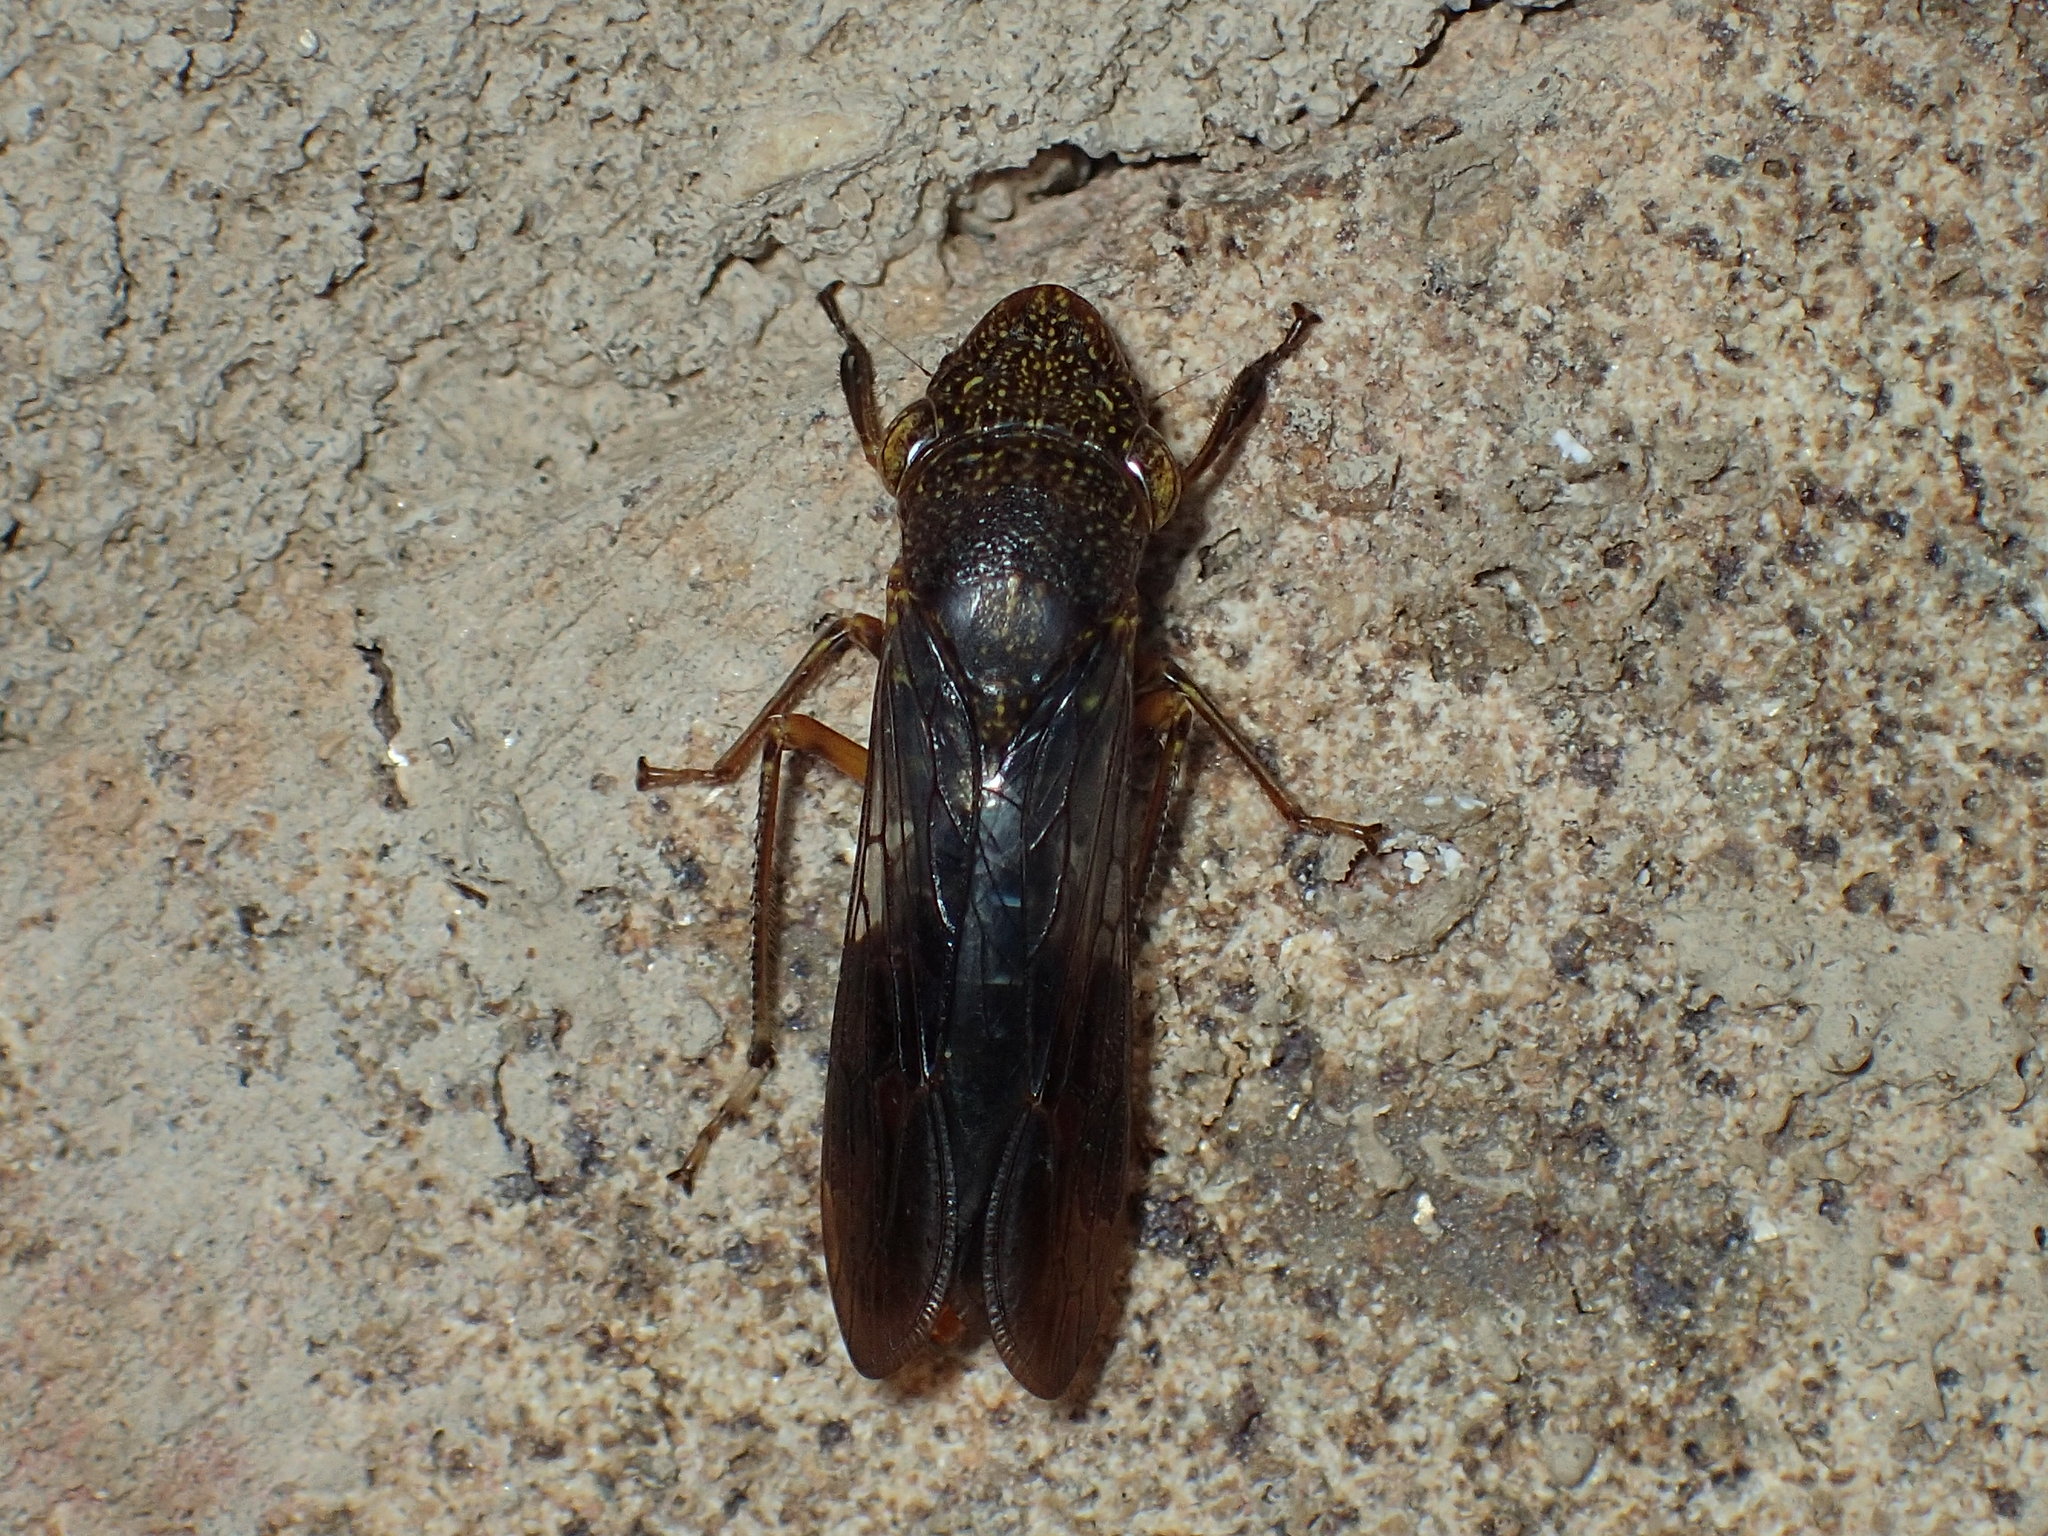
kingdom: Animalia
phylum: Arthropoda
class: Insecta
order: Hemiptera
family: Cicadellidae
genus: Homalodisca
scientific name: Homalodisca vitripennis
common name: Glassy-winged sharpshooter
